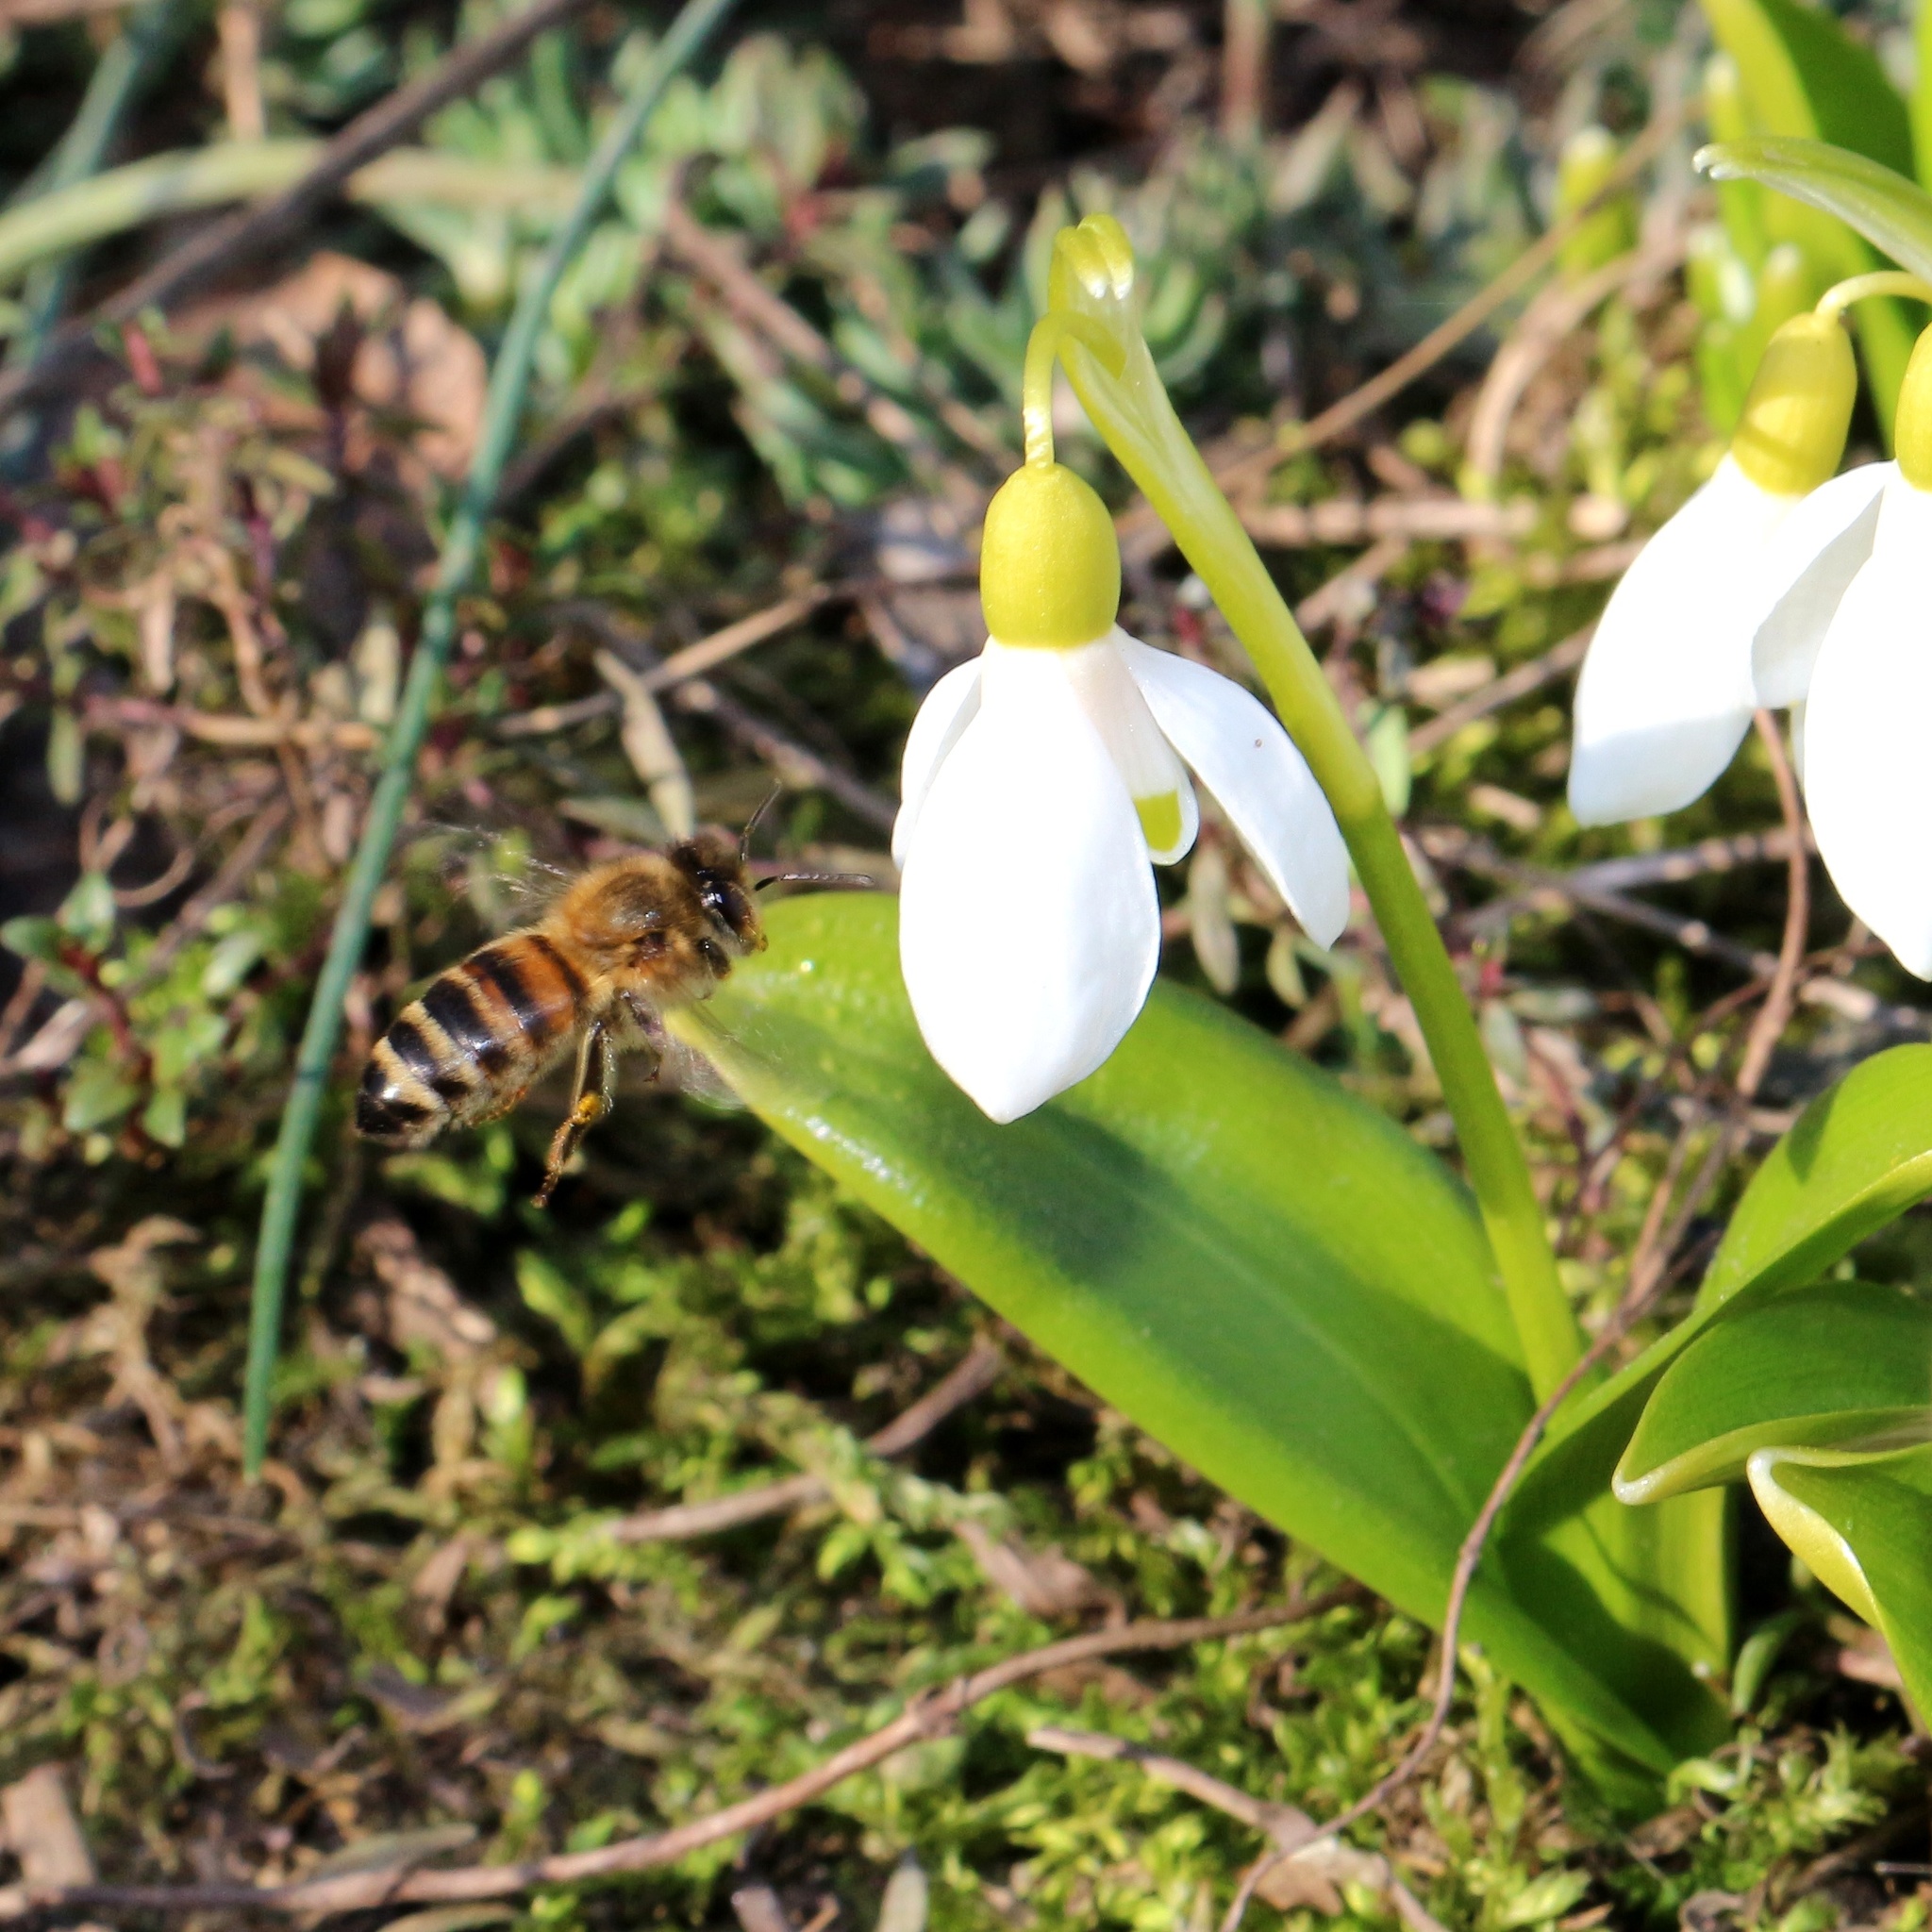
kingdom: Animalia
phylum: Arthropoda
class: Insecta
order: Hymenoptera
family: Apidae
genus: Apis
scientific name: Apis mellifera
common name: Honey bee
